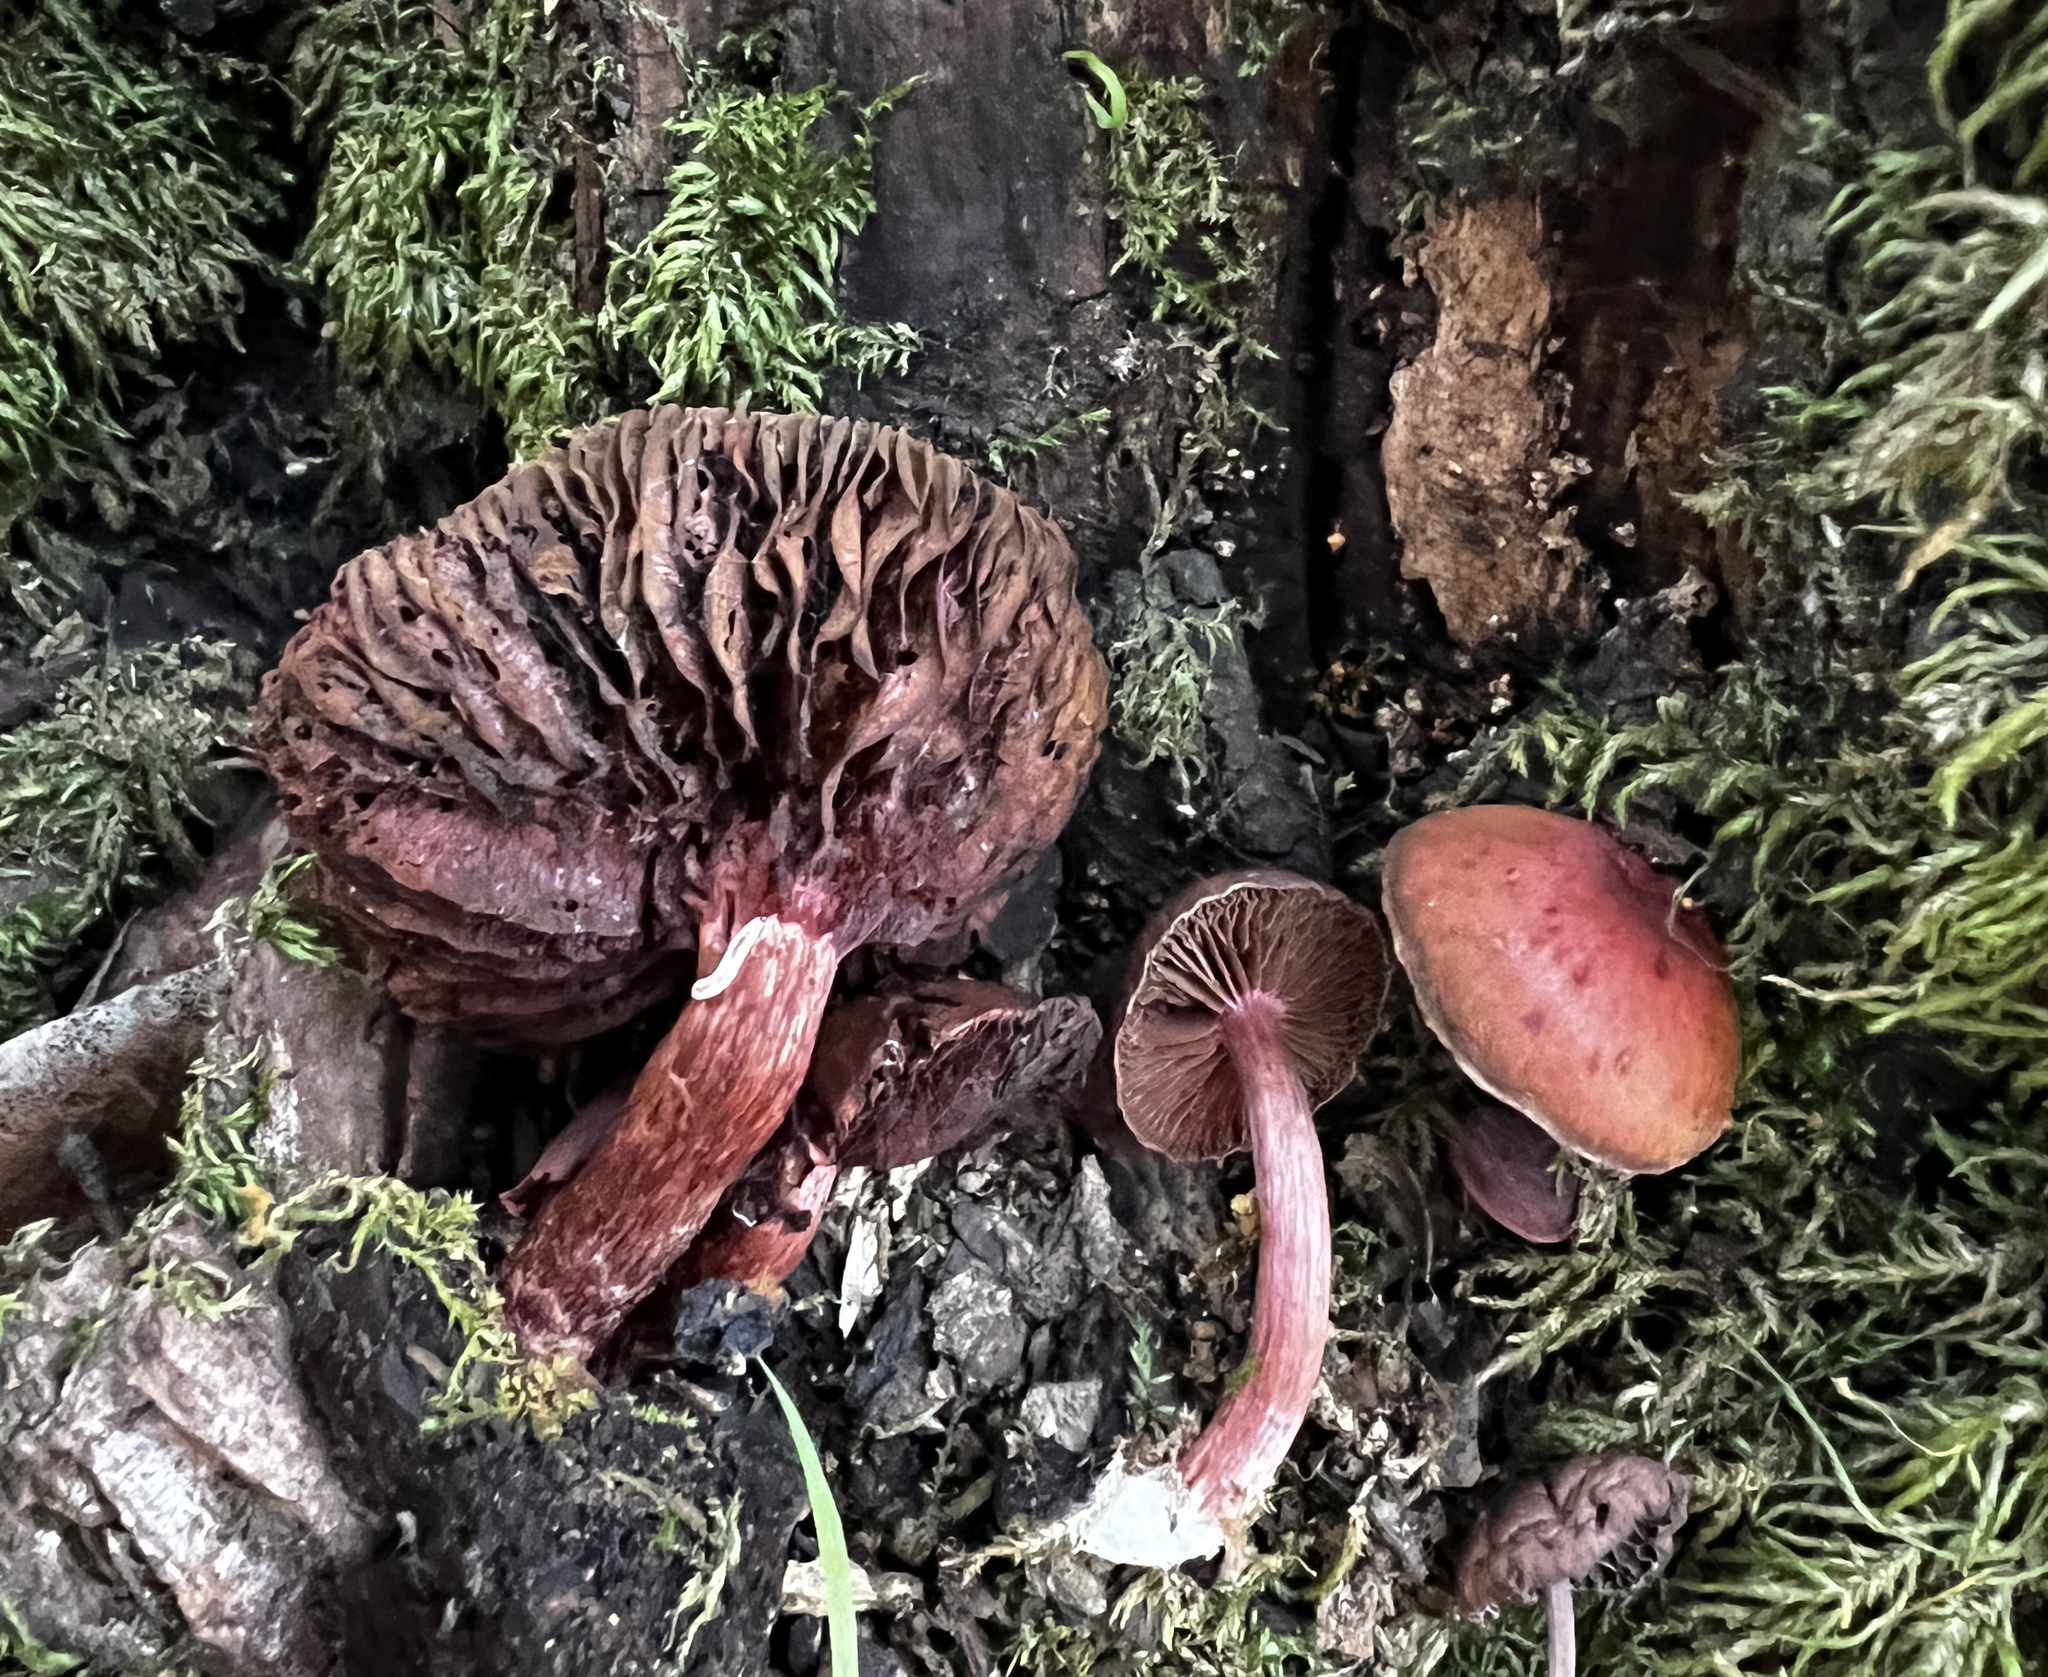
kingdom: Fungi
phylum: Basidiomycota
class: Agaricomycetes
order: Agaricales
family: Tubariaceae
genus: Tubaria
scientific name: Tubaria punicea
